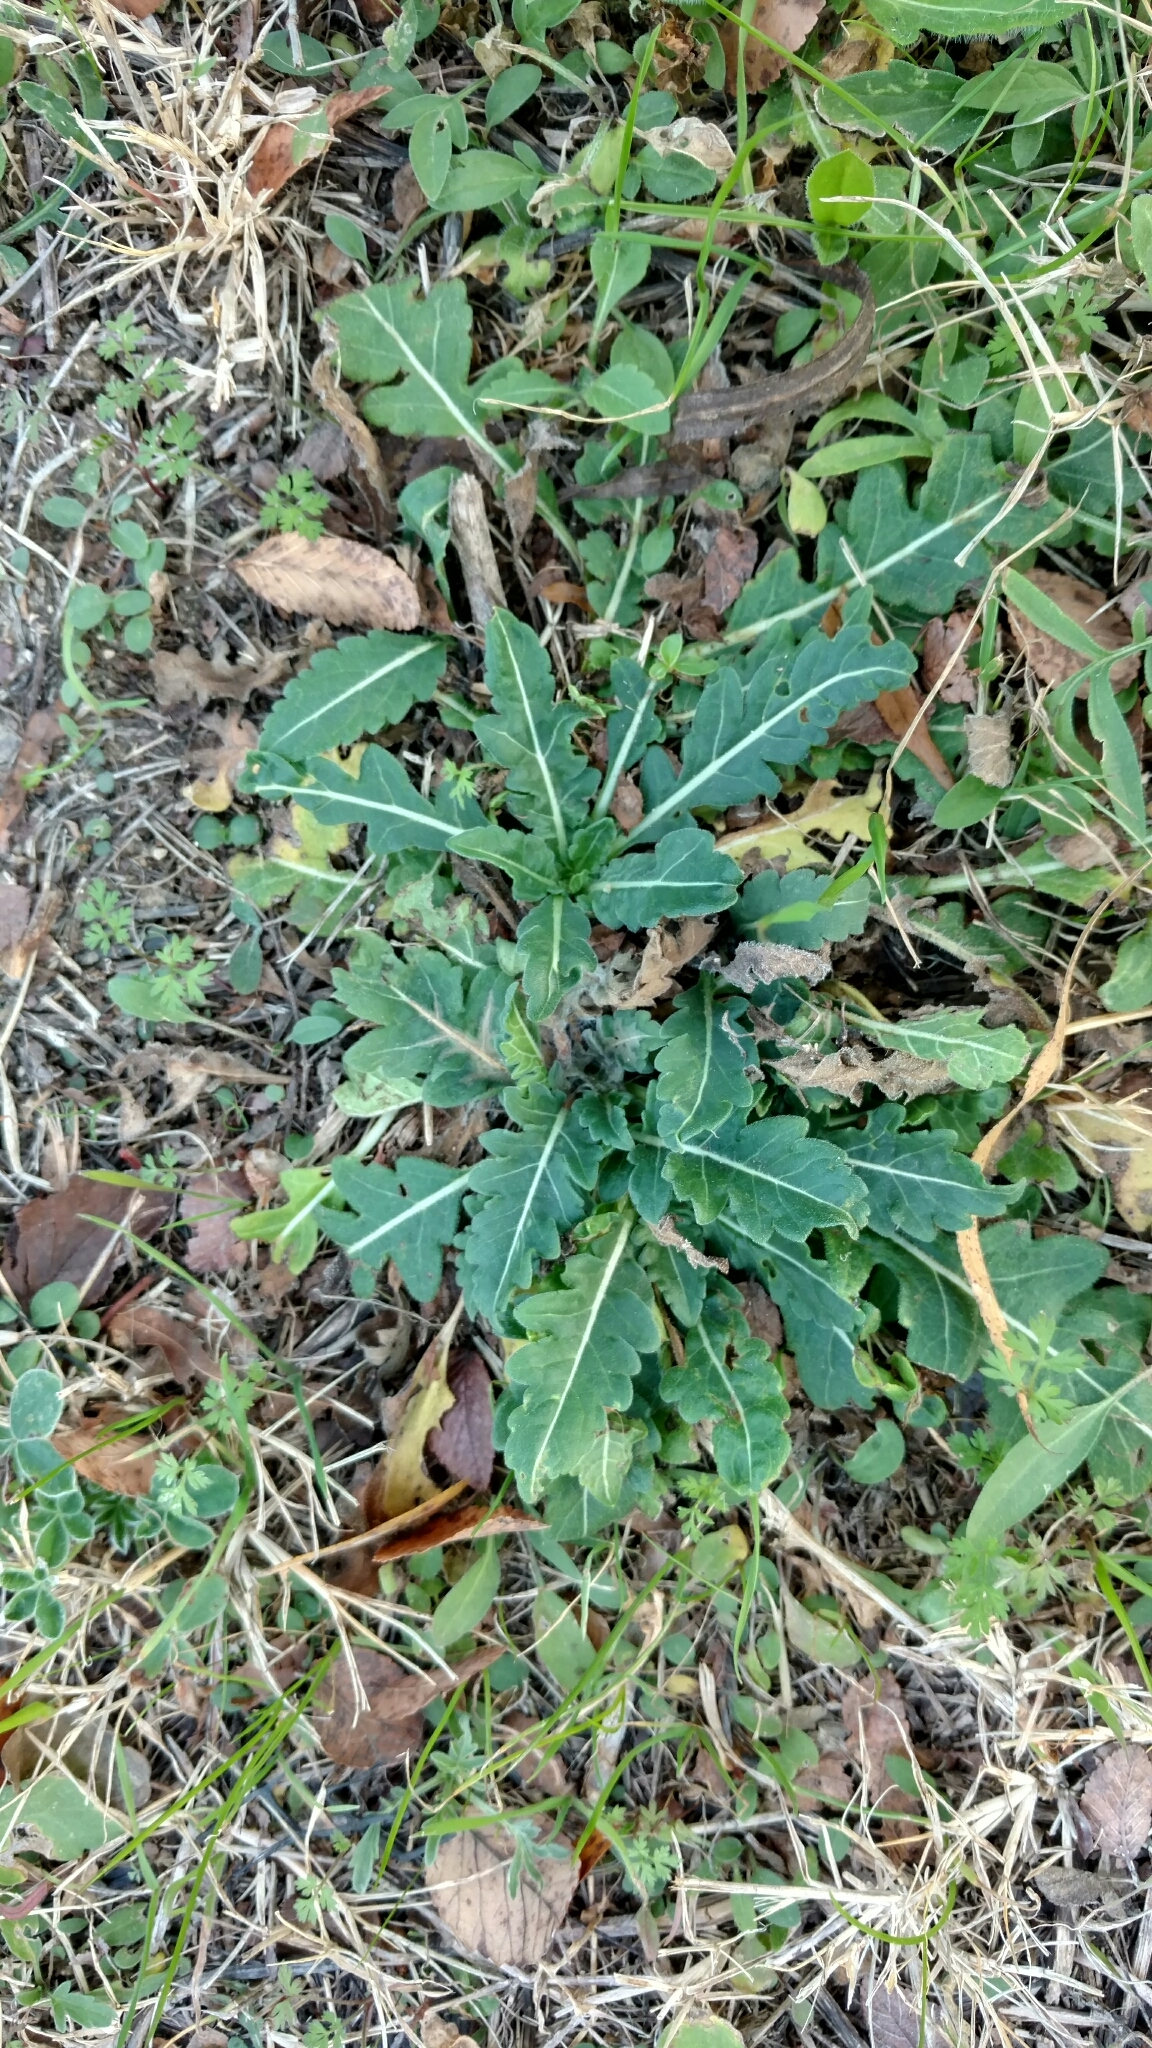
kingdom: Plantae
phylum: Tracheophyta
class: Magnoliopsida
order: Asterales
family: Asteraceae
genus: Engelmannia
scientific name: Engelmannia peristenia
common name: Engelmann's daisy
